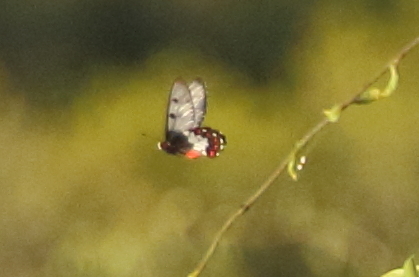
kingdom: Animalia
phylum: Arthropoda
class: Insecta
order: Lepidoptera
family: Papilionidae
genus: Cressida
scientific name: Cressida cressida
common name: Big greasy
